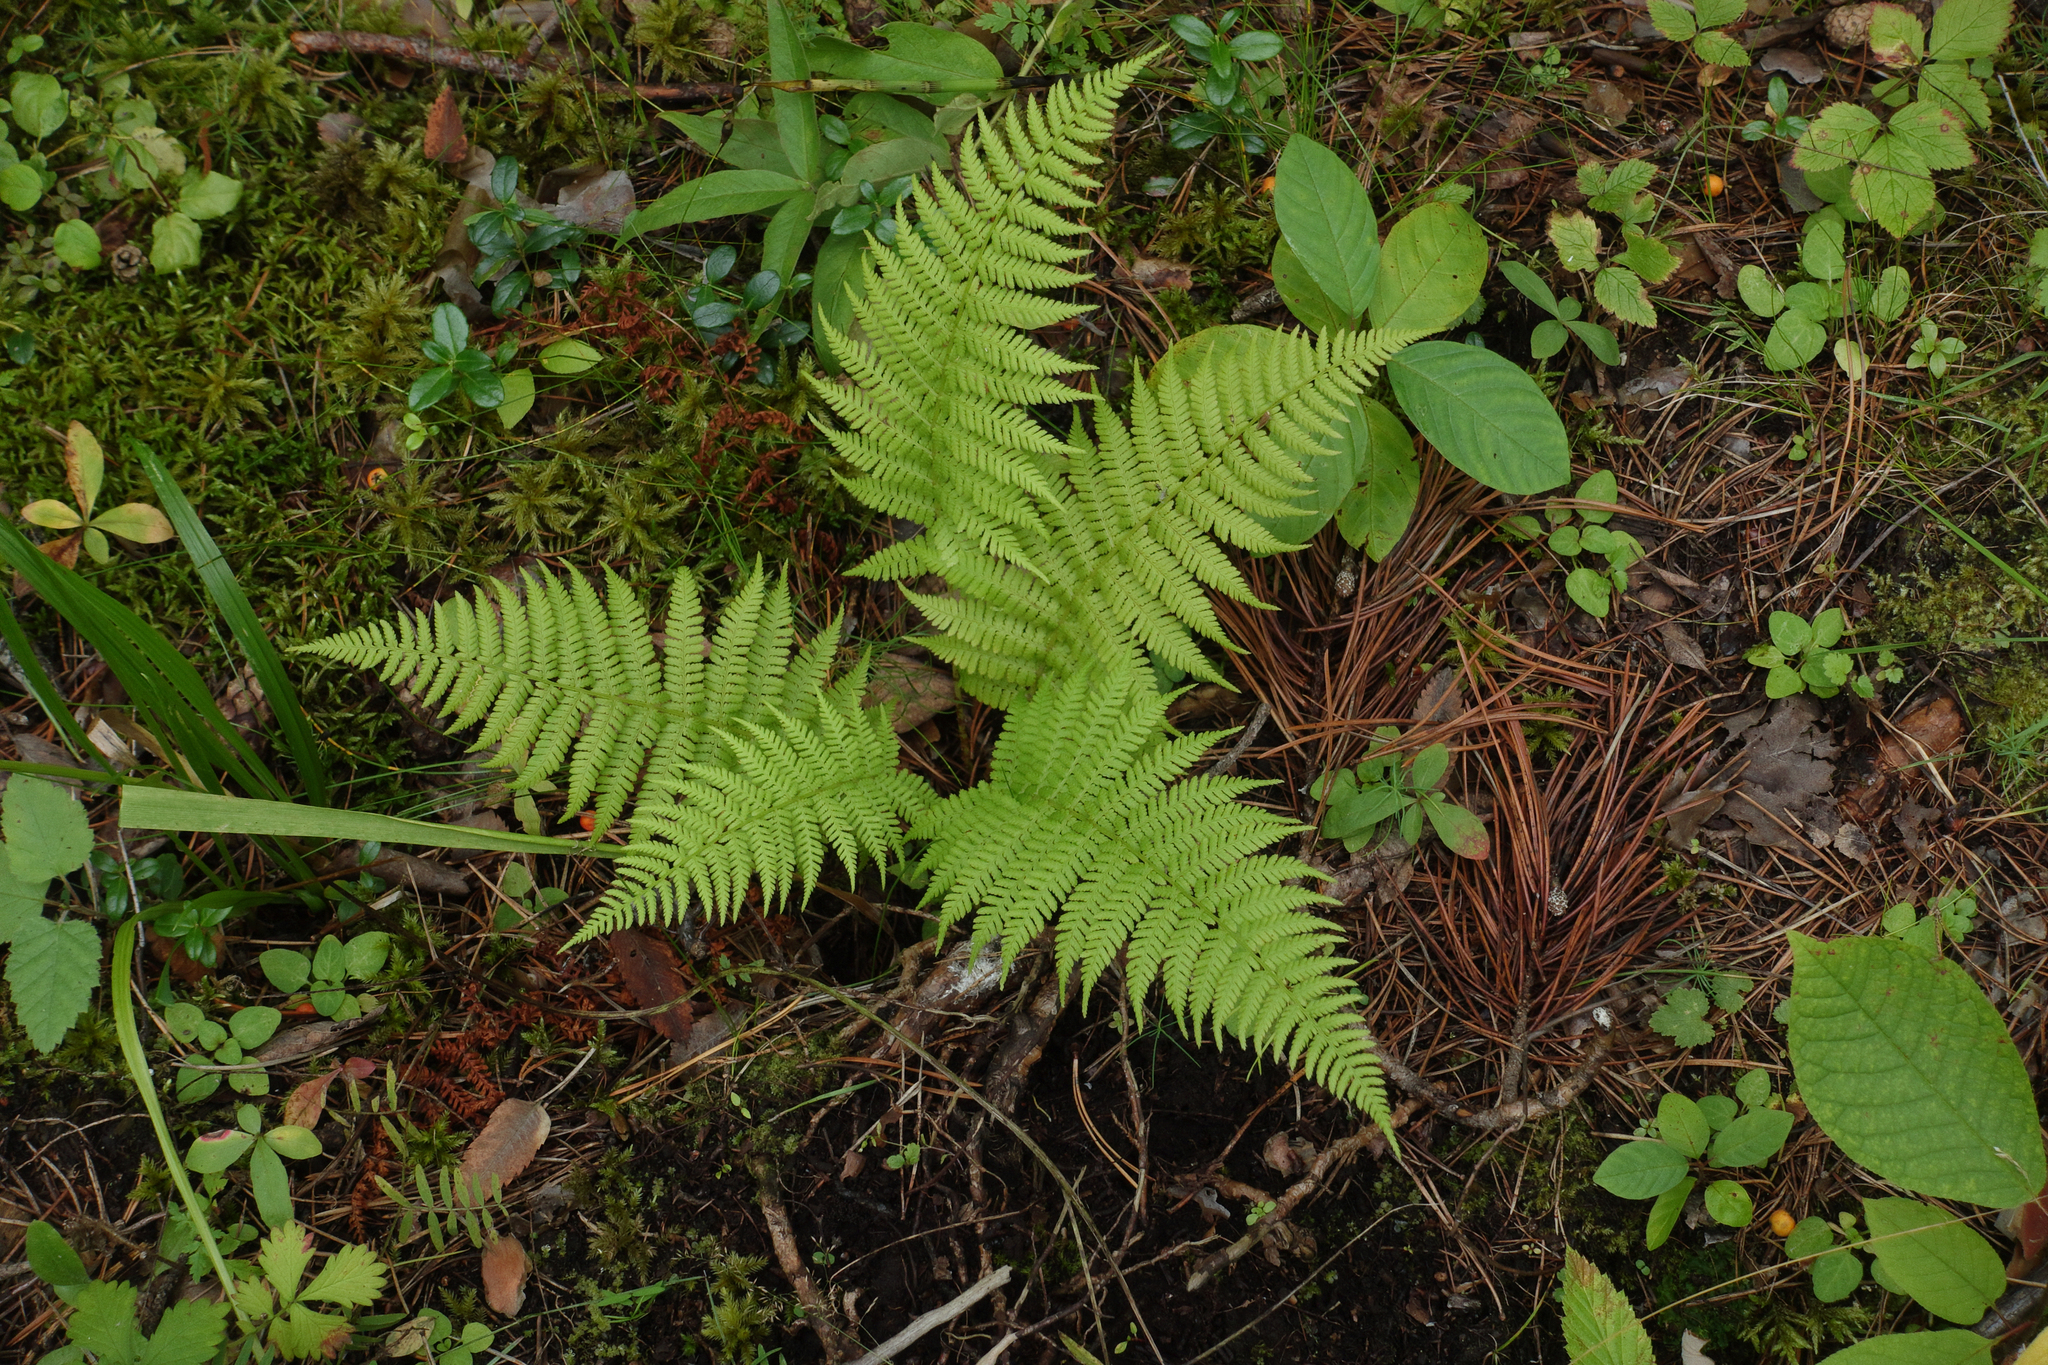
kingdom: Plantae
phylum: Tracheophyta
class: Polypodiopsida
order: Polypodiales
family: Athyriaceae
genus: Athyrium
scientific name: Athyrium filix-femina
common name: Lady fern
